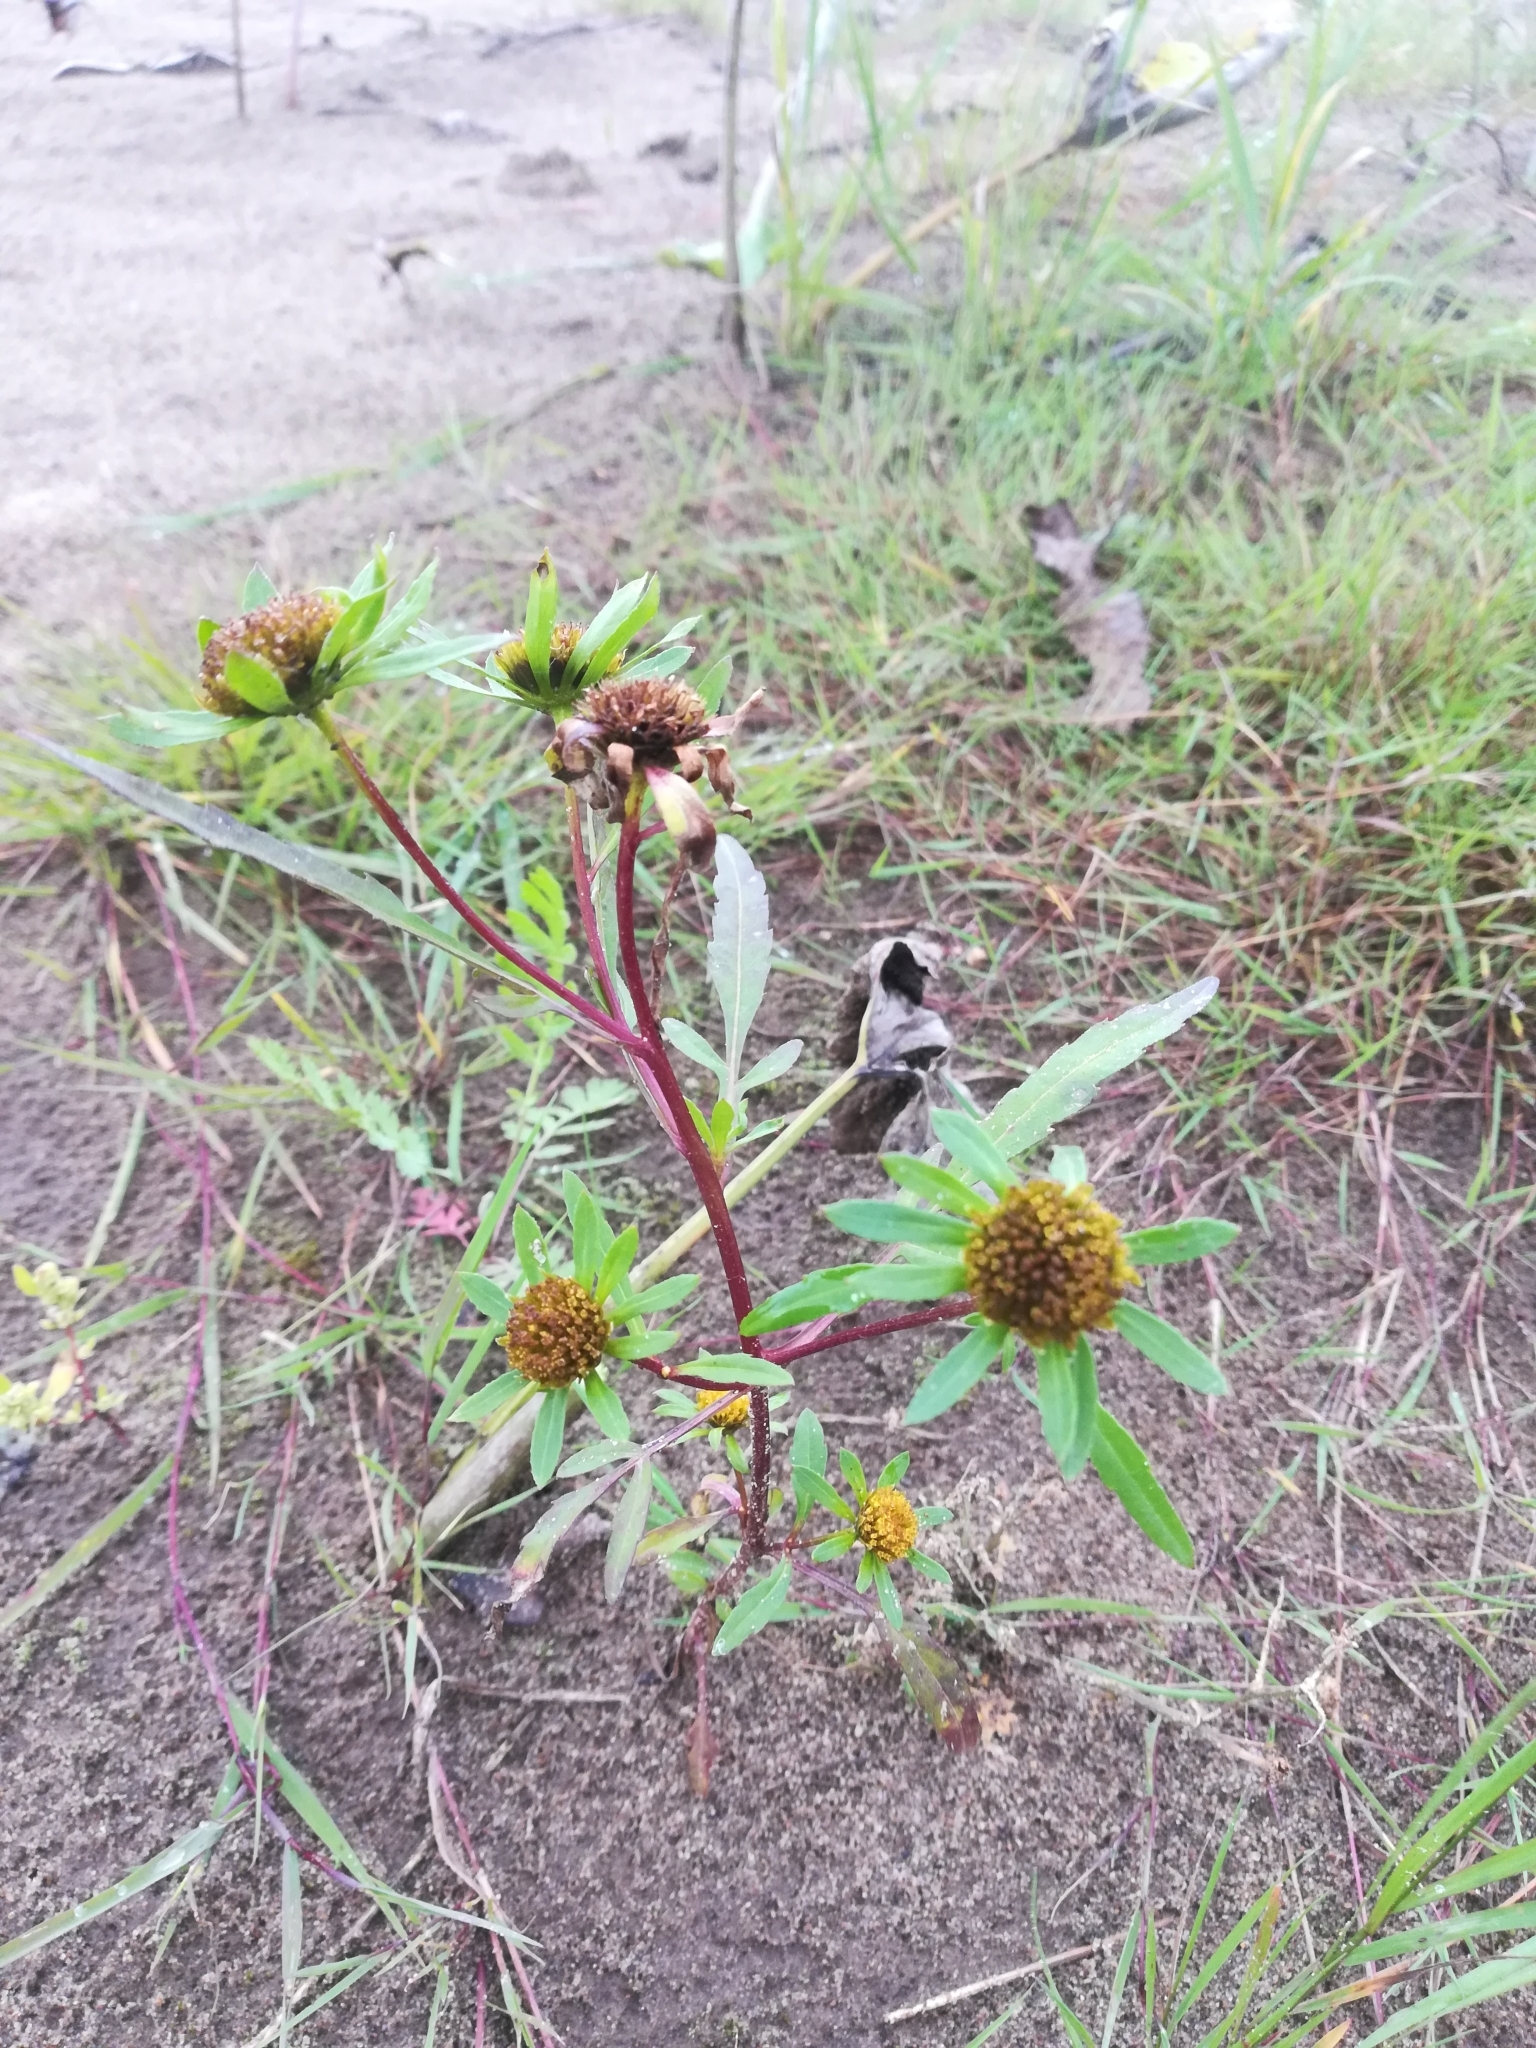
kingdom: Plantae
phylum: Tracheophyta
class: Magnoliopsida
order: Asterales
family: Asteraceae
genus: Bidens
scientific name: Bidens radiata
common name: Radiating bur-marigold
